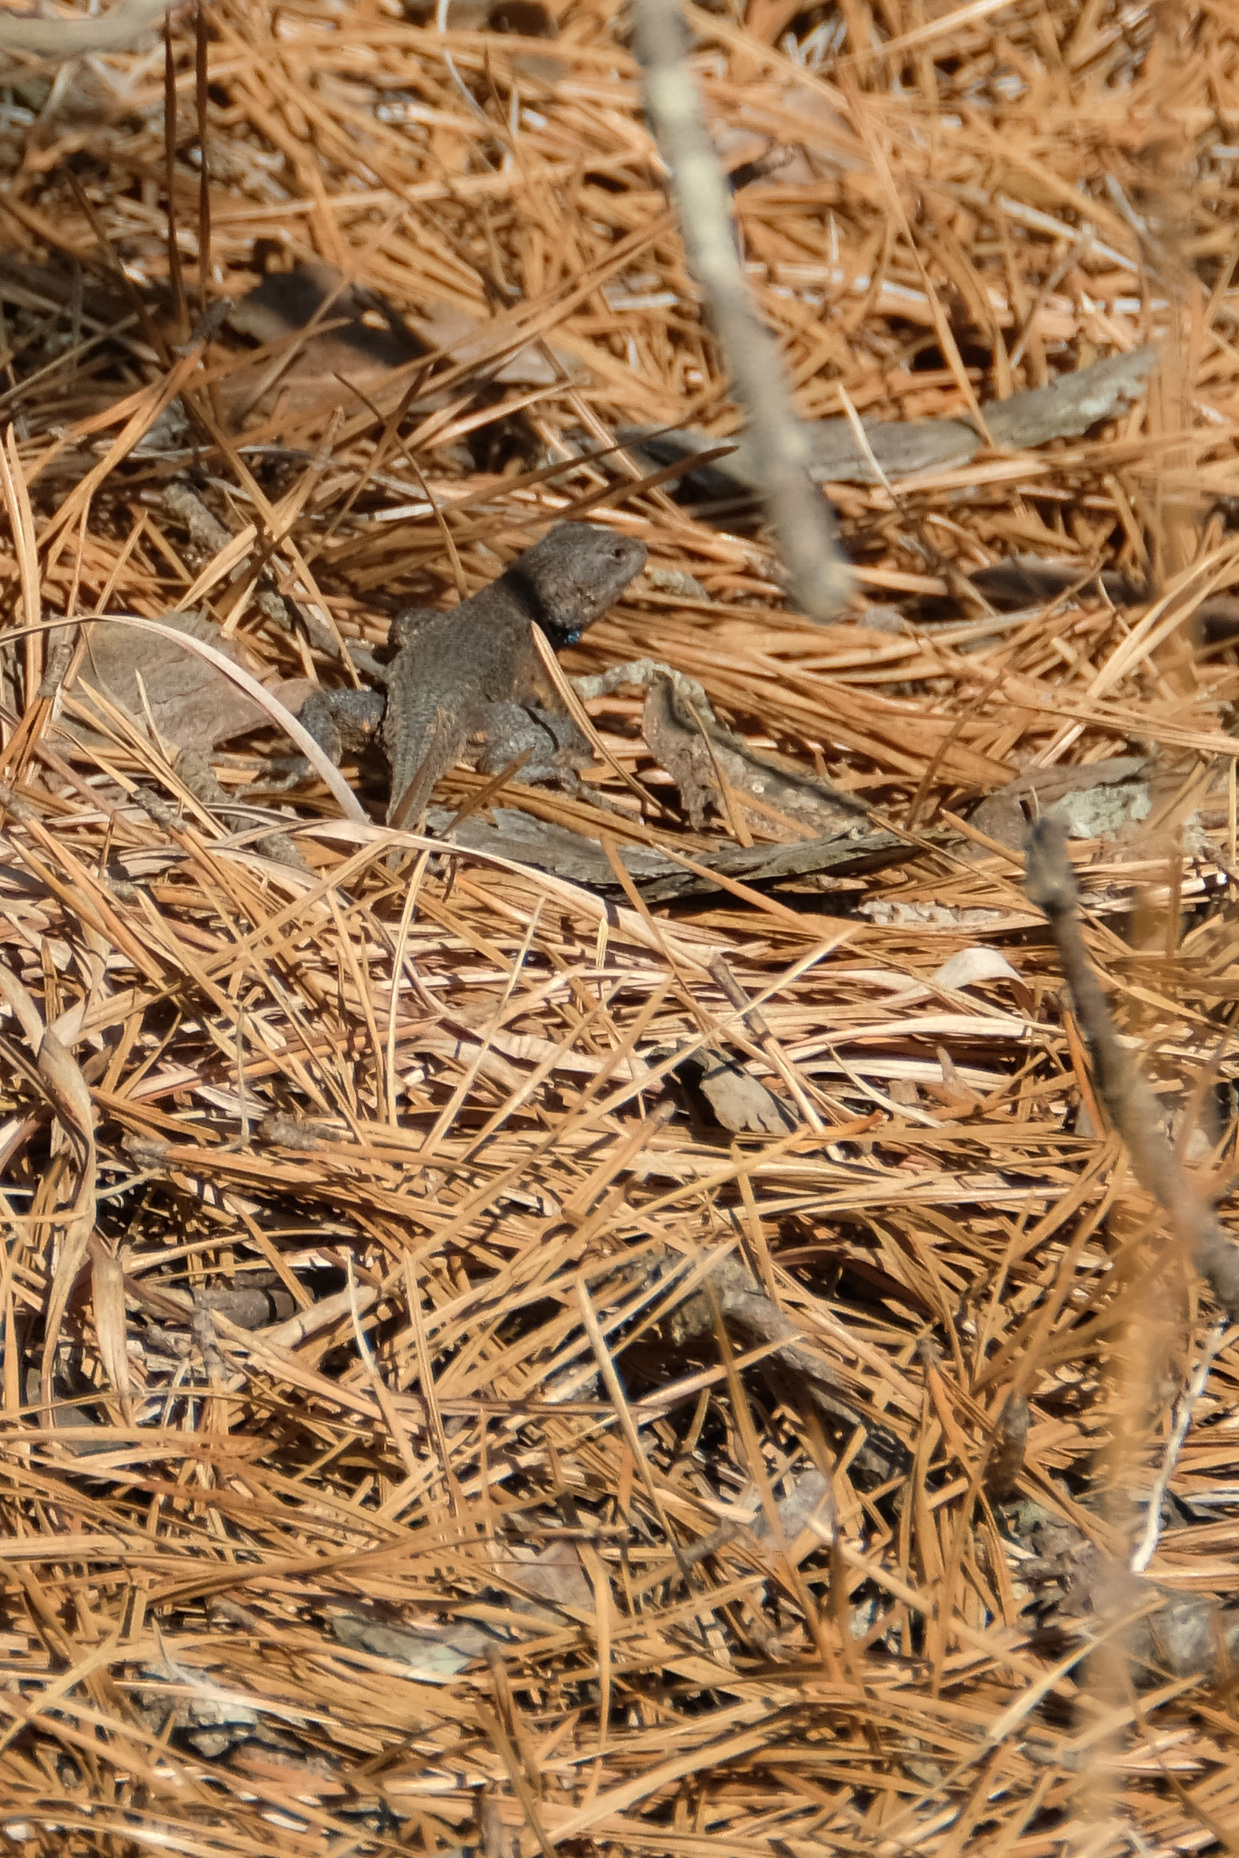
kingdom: Animalia
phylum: Chordata
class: Squamata
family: Phrynosomatidae
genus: Sceloporus
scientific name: Sceloporus undulatus
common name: Eastern fence lizard
